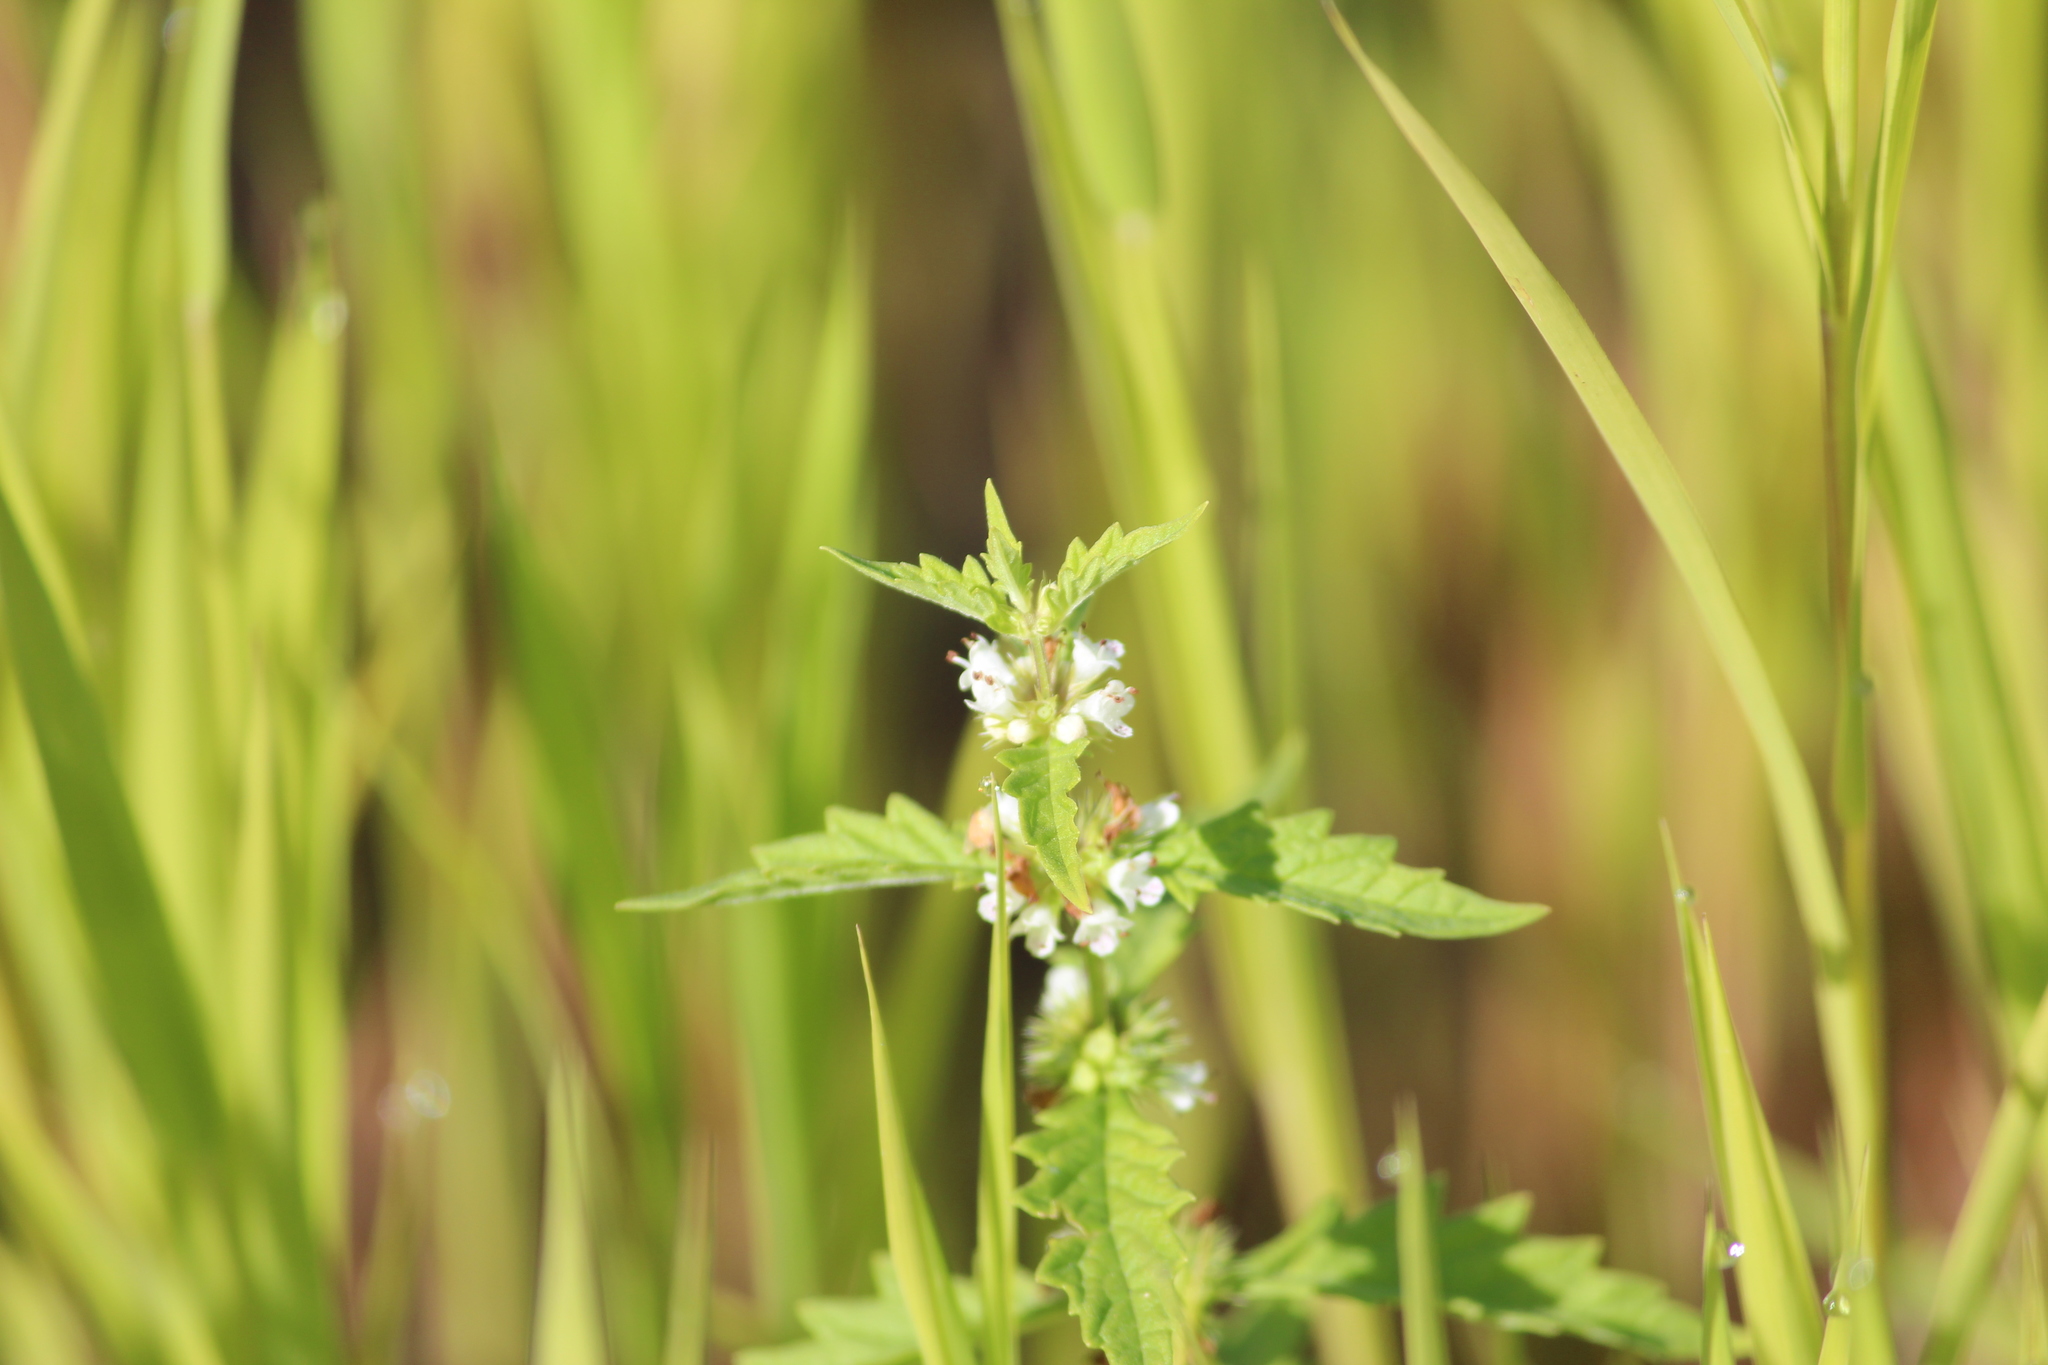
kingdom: Plantae
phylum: Tracheophyta
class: Magnoliopsida
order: Lamiales
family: Lamiaceae
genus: Lycopus
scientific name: Lycopus europaeus
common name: European bugleweed
